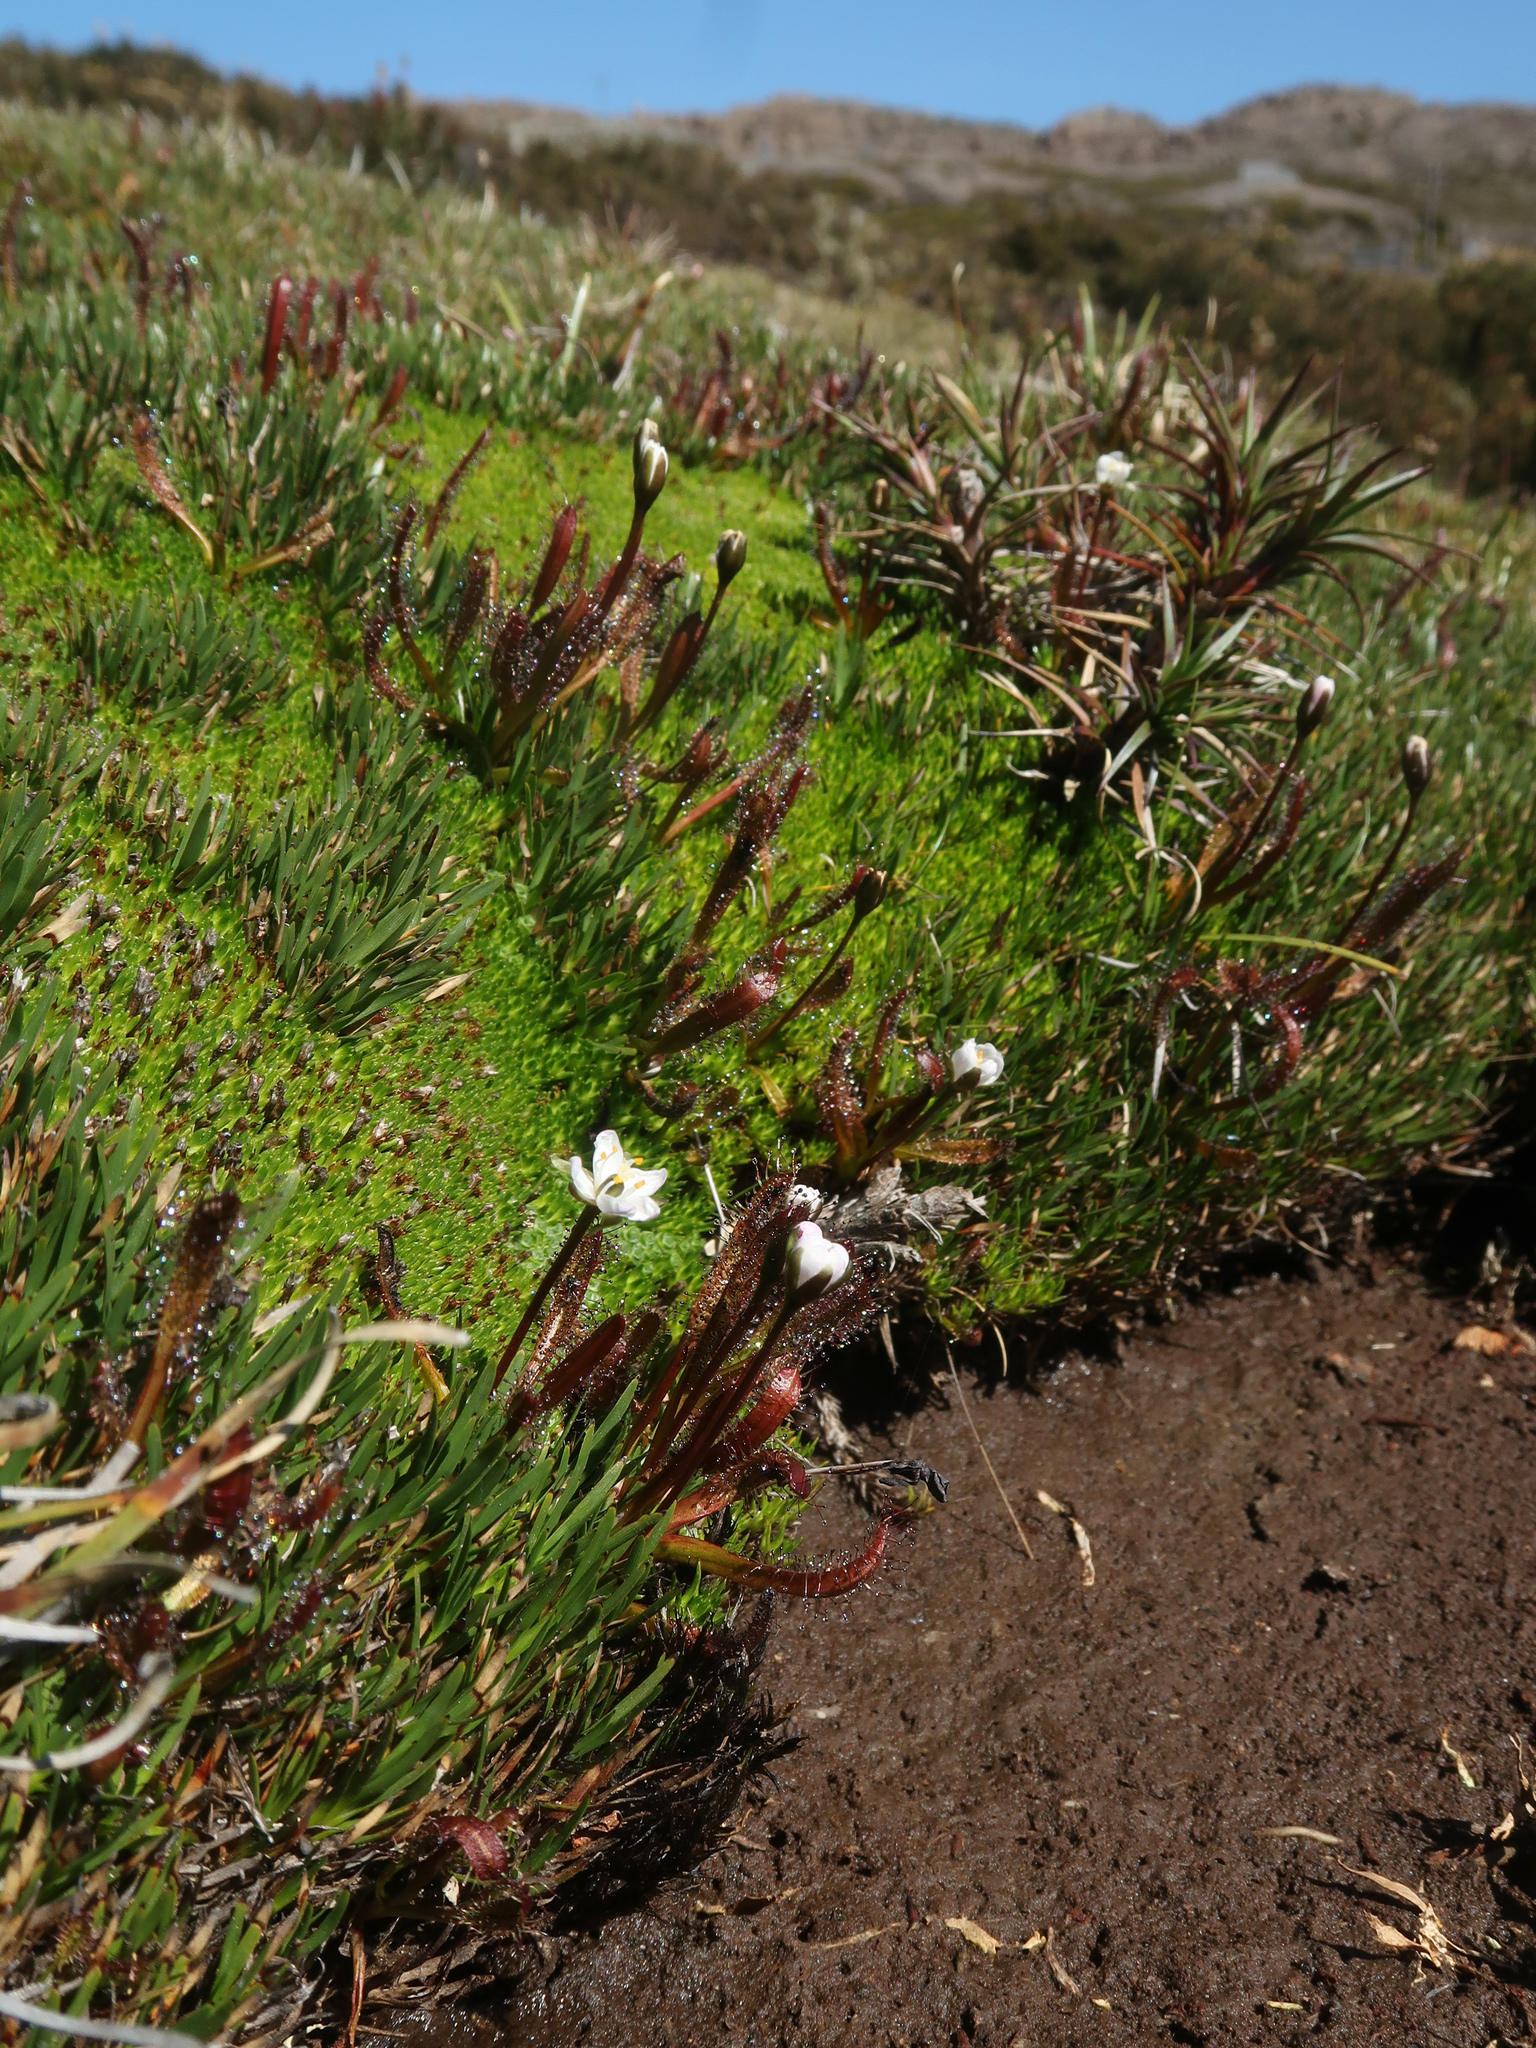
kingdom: Plantae
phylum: Tracheophyta
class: Magnoliopsida
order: Caryophyllales
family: Droseraceae
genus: Drosera
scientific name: Drosera arcturi
